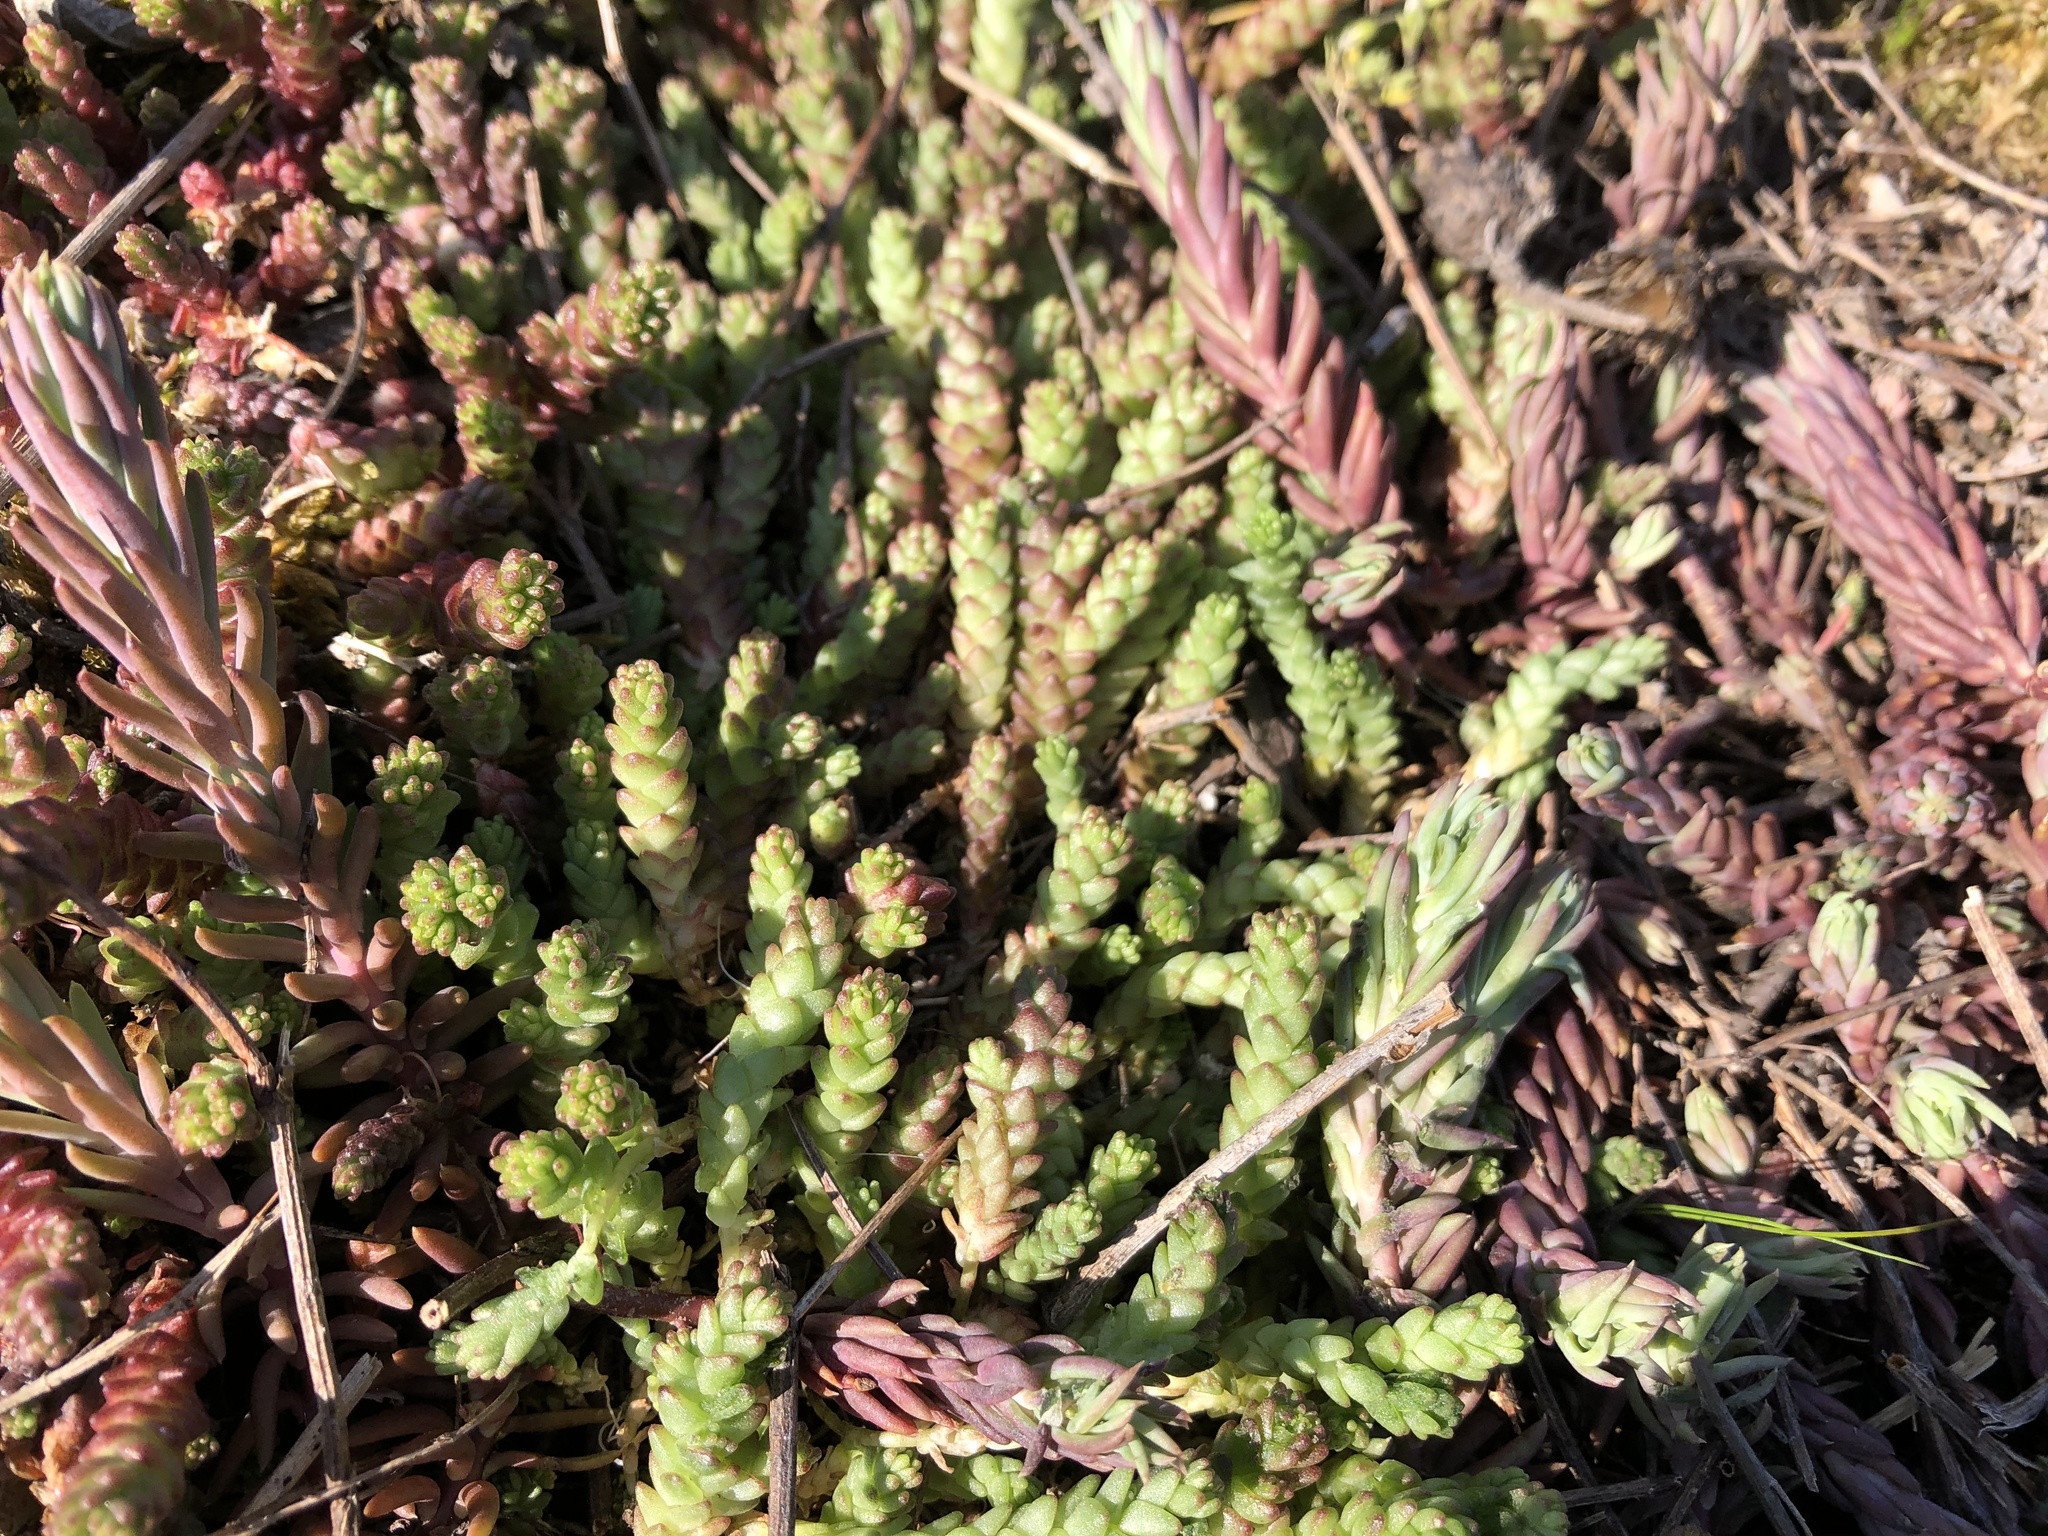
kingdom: Plantae
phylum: Tracheophyta
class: Magnoliopsida
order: Saxifragales
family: Crassulaceae
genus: Sedum
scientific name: Sedum acre
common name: Biting stonecrop
